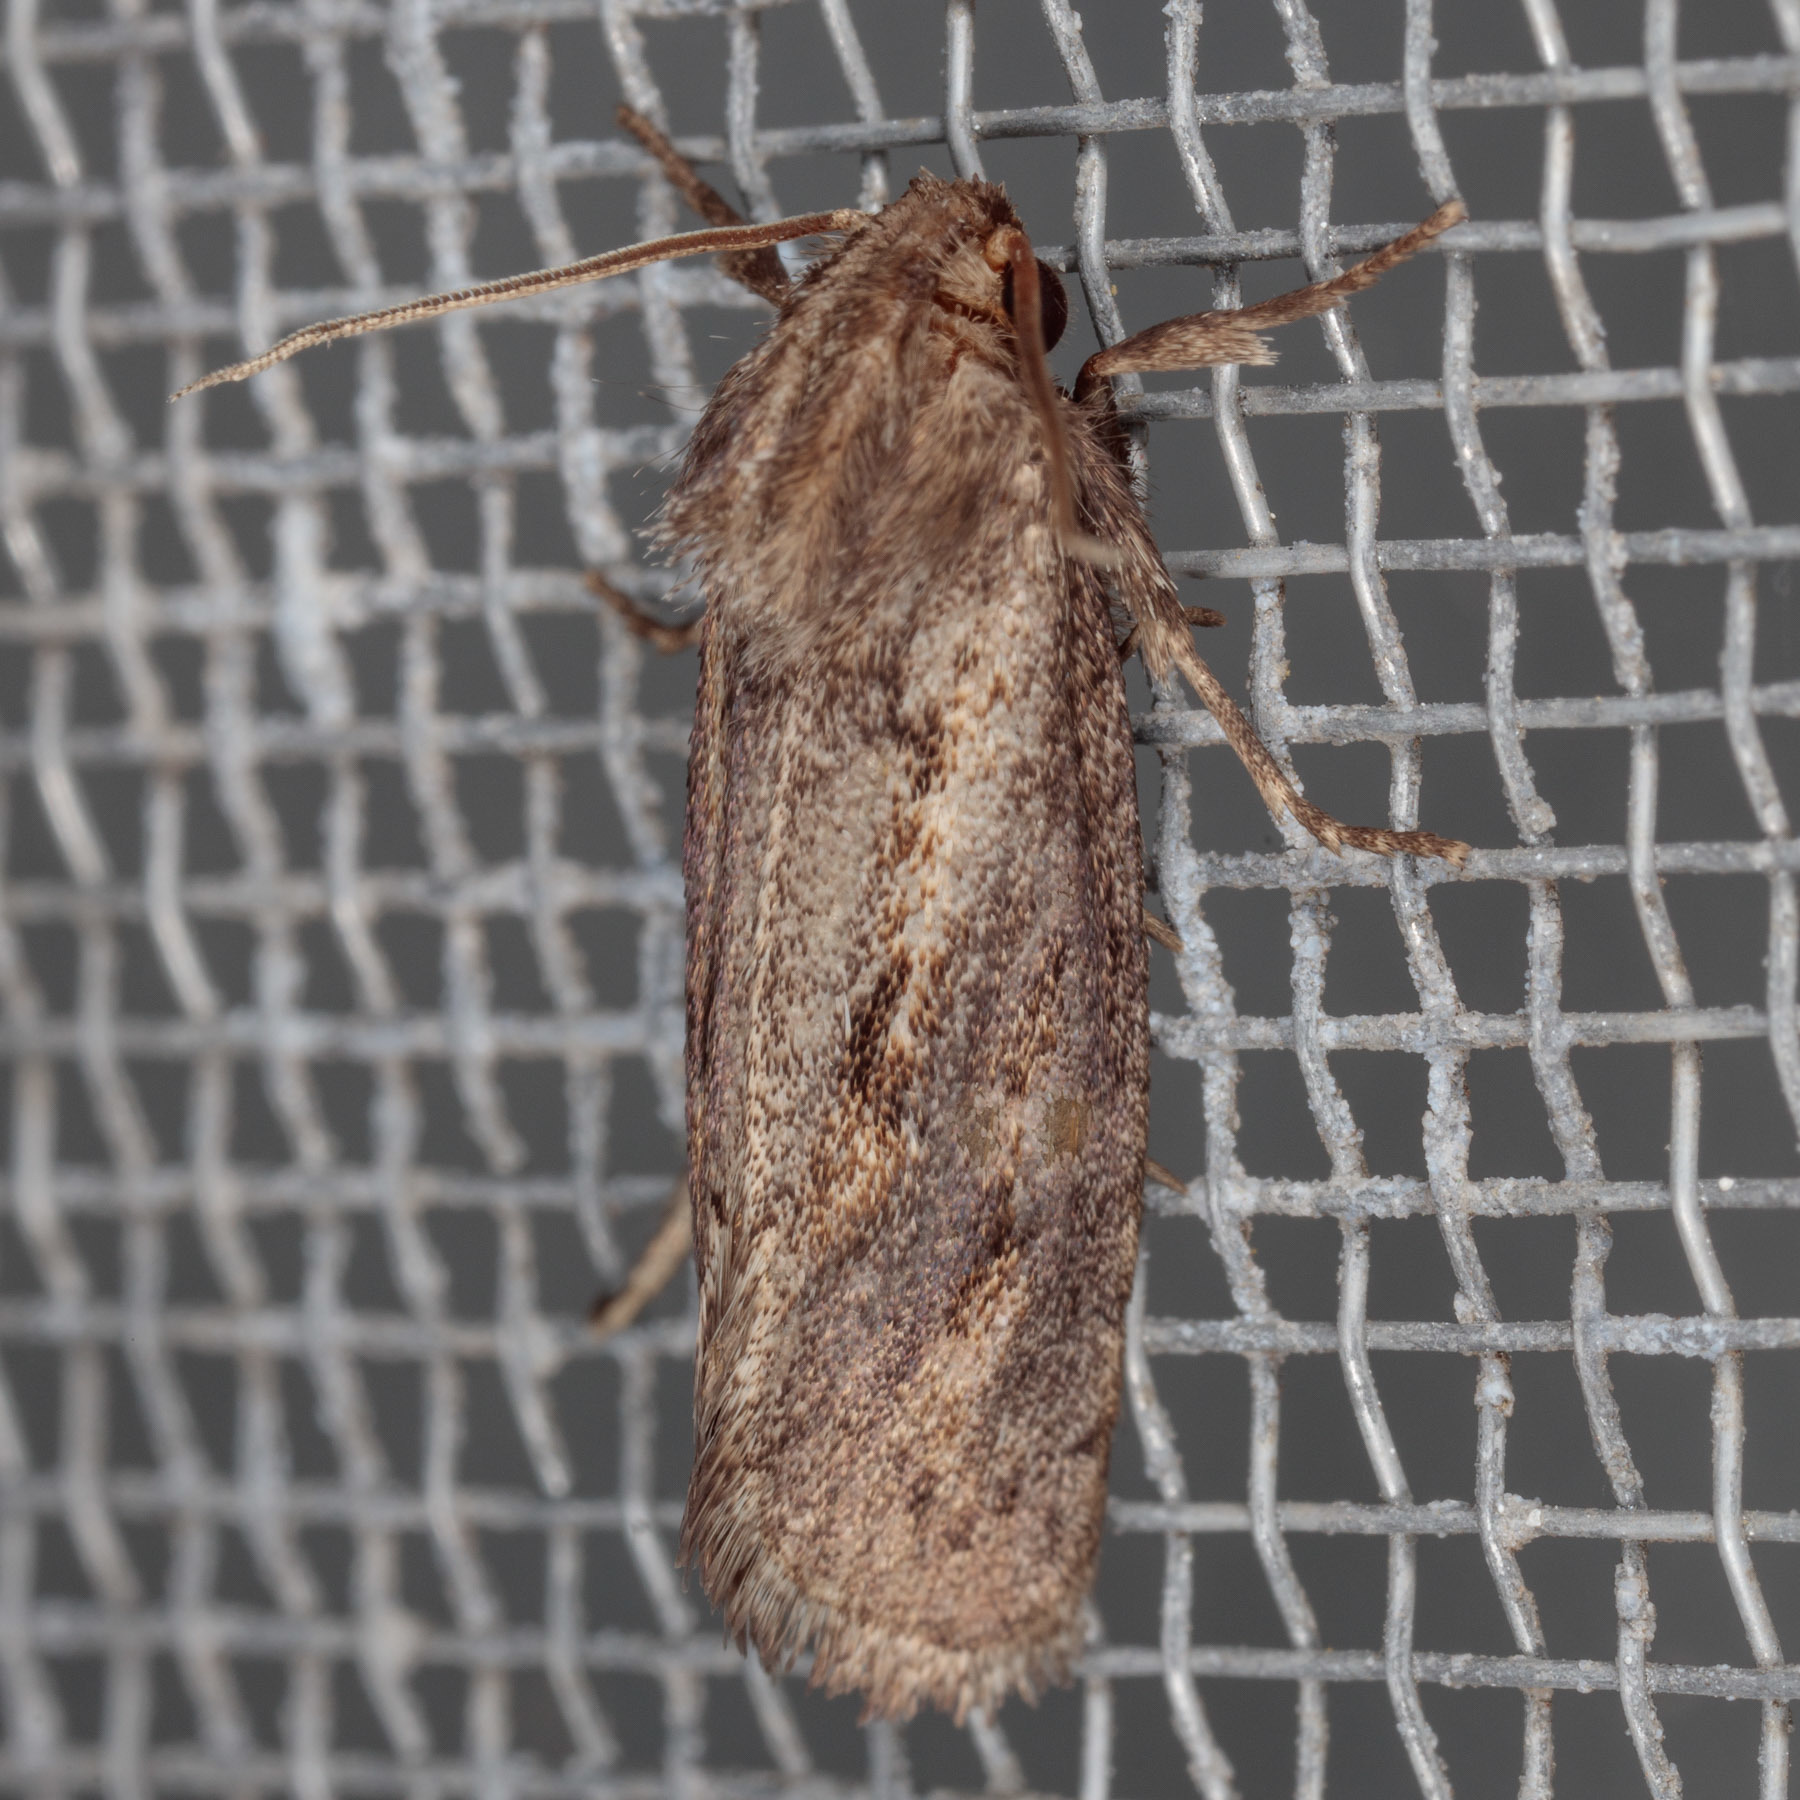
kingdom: Animalia
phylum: Arthropoda
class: Insecta
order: Lepidoptera
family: Tineidae
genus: Acrolophus
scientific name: Acrolophus popeanella
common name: Clemens' grass tubeworm moth
